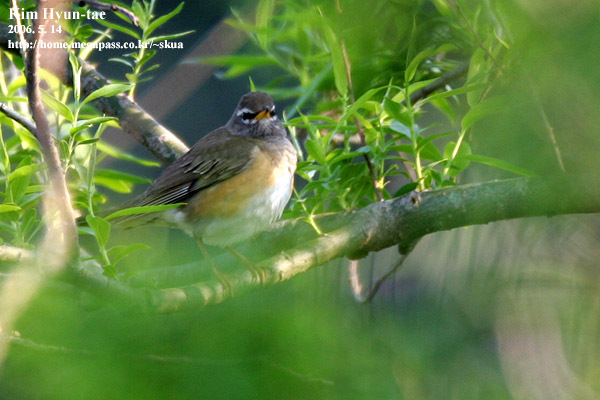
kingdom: Animalia
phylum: Chordata
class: Aves
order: Passeriformes
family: Turdidae
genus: Turdus
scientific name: Turdus obscurus
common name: Eyebrowed thrush
